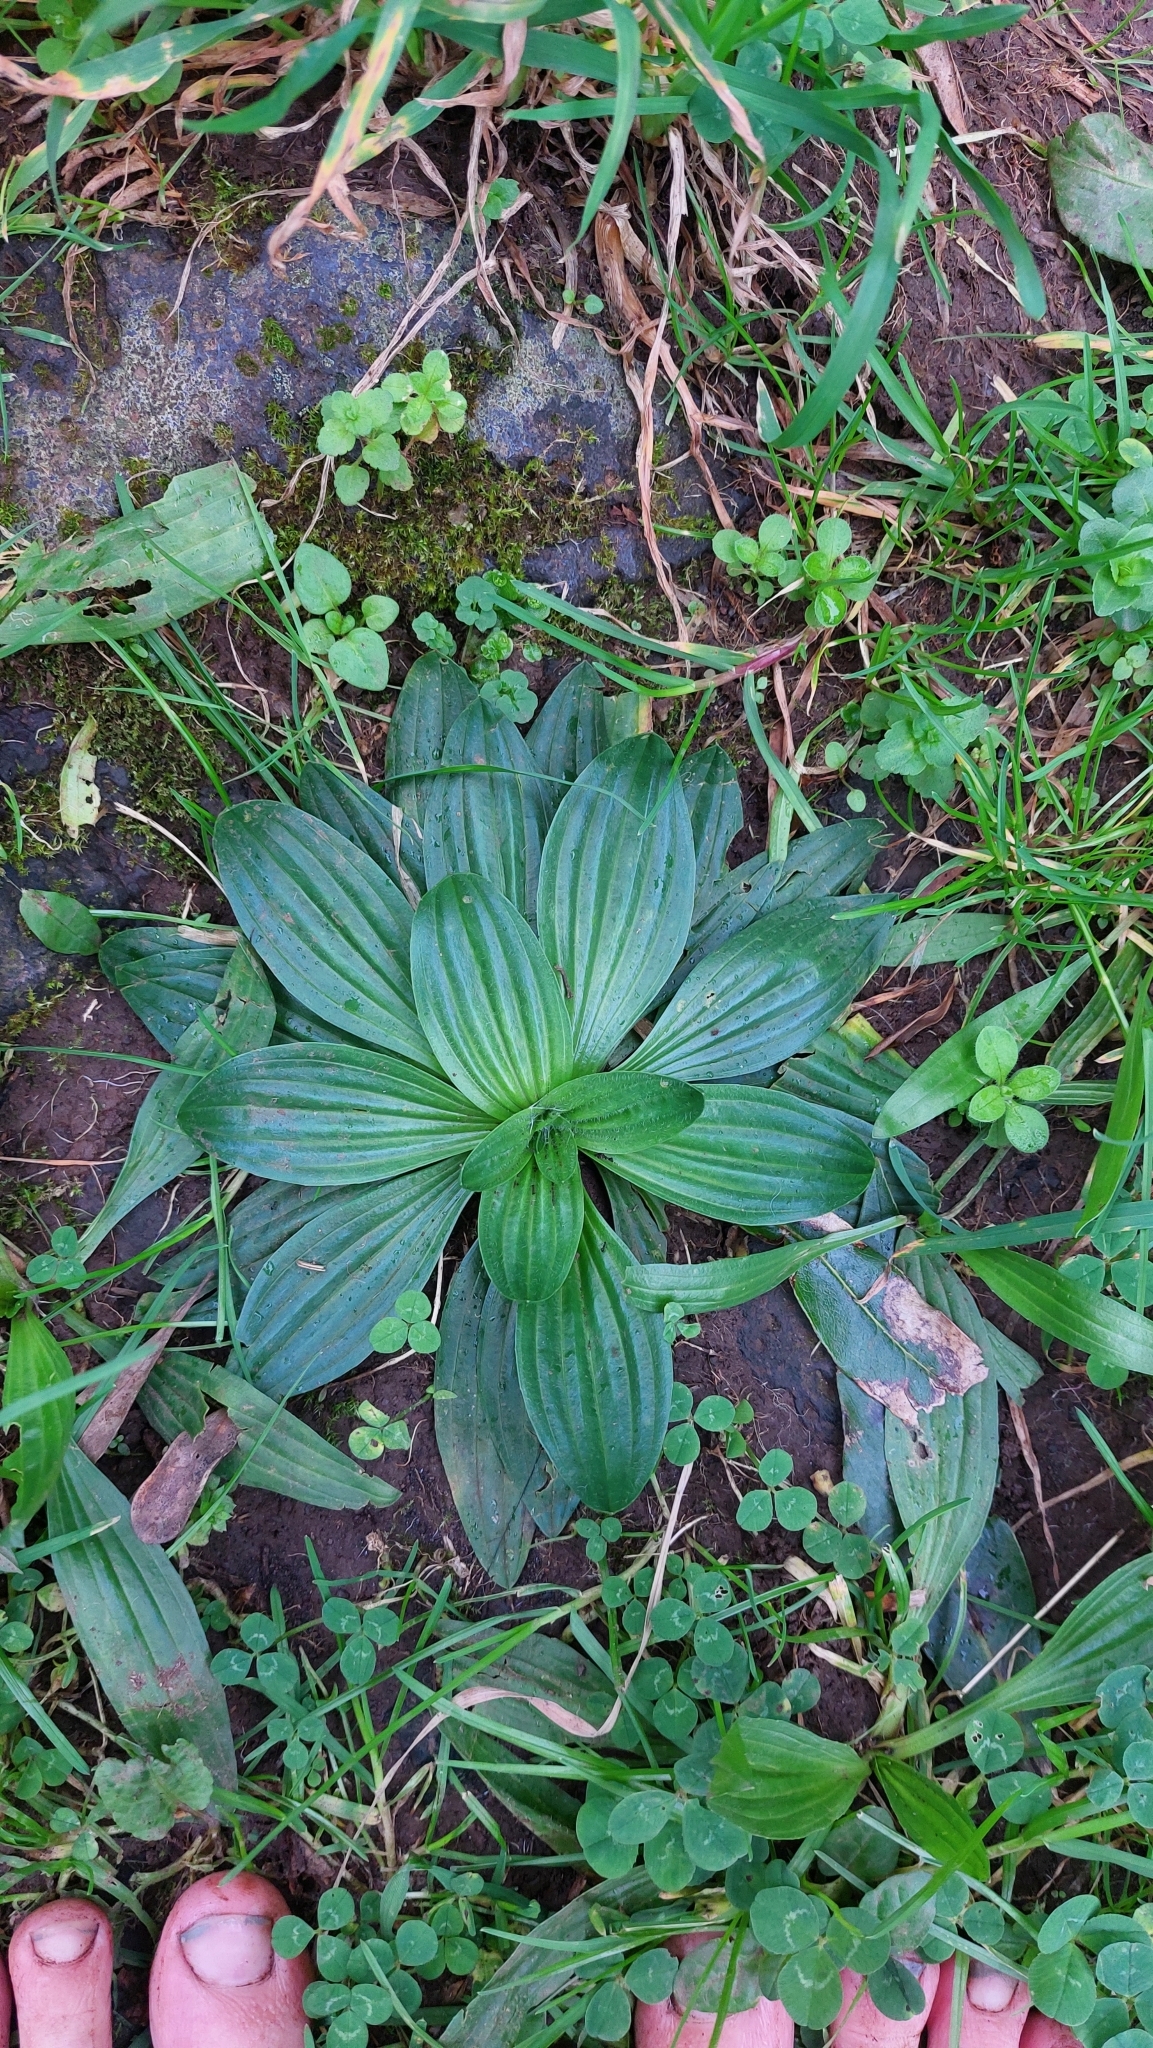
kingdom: Plantae
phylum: Tracheophyta
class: Magnoliopsida
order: Lamiales
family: Plantaginaceae
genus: Plantago
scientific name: Plantago lanceolata
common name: Ribwort plantain
